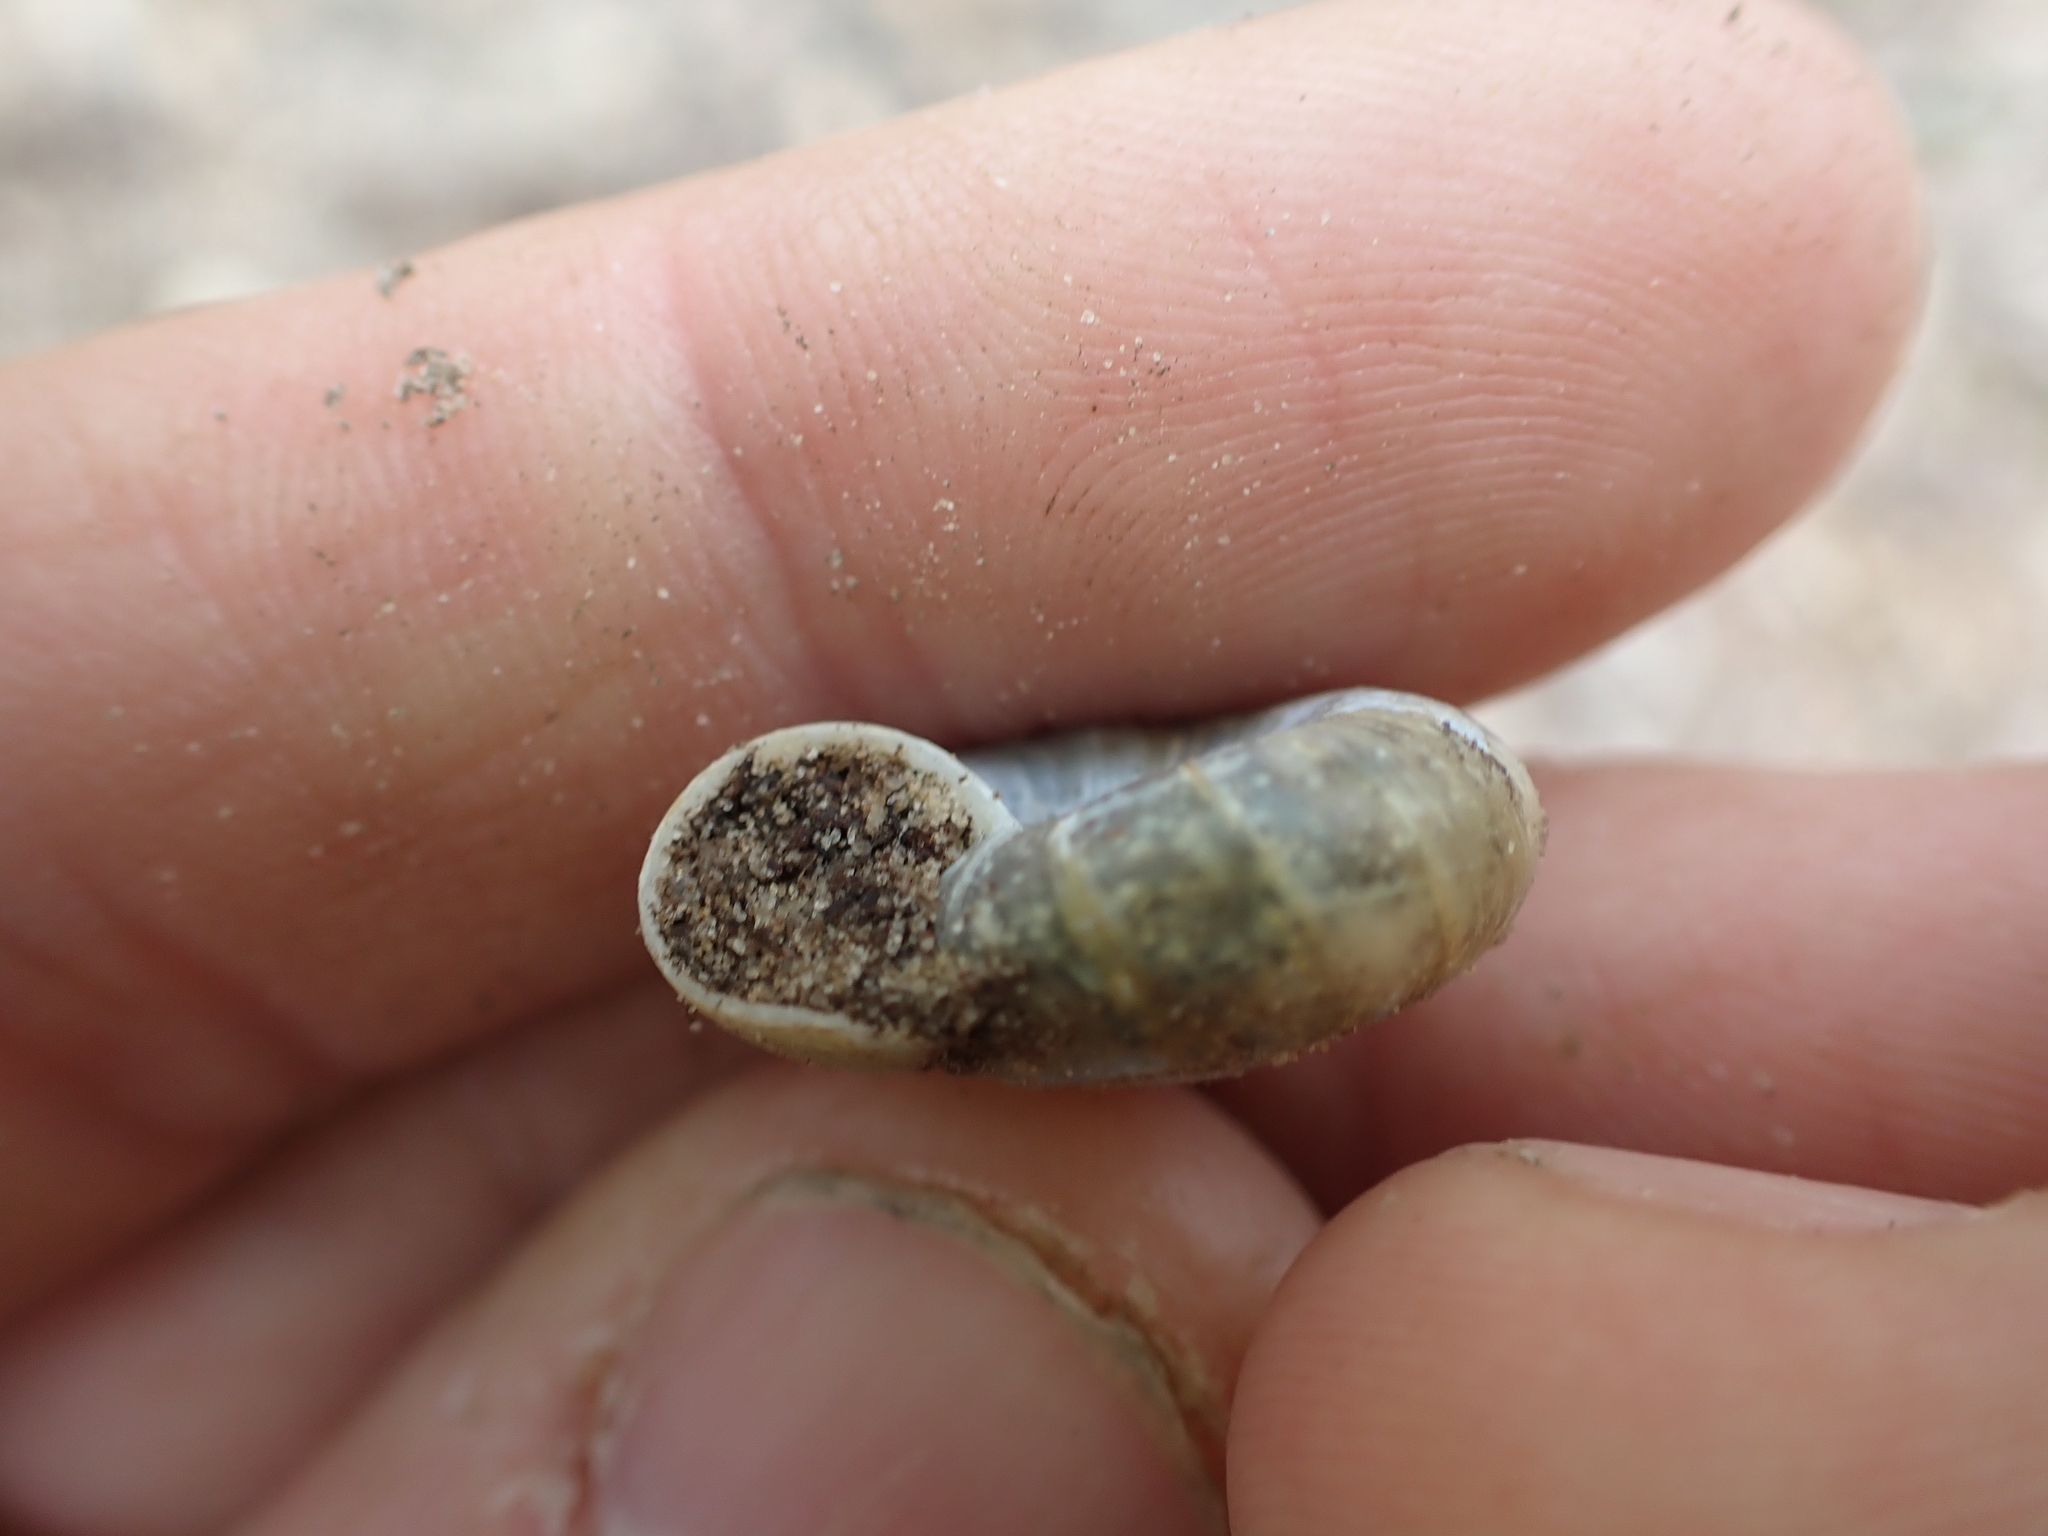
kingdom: Animalia
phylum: Mollusca
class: Gastropoda
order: Stylommatophora
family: Haplotrematidae
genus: Haplotrema
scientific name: Haplotrema concavum
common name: Gray-foot lancetooth
